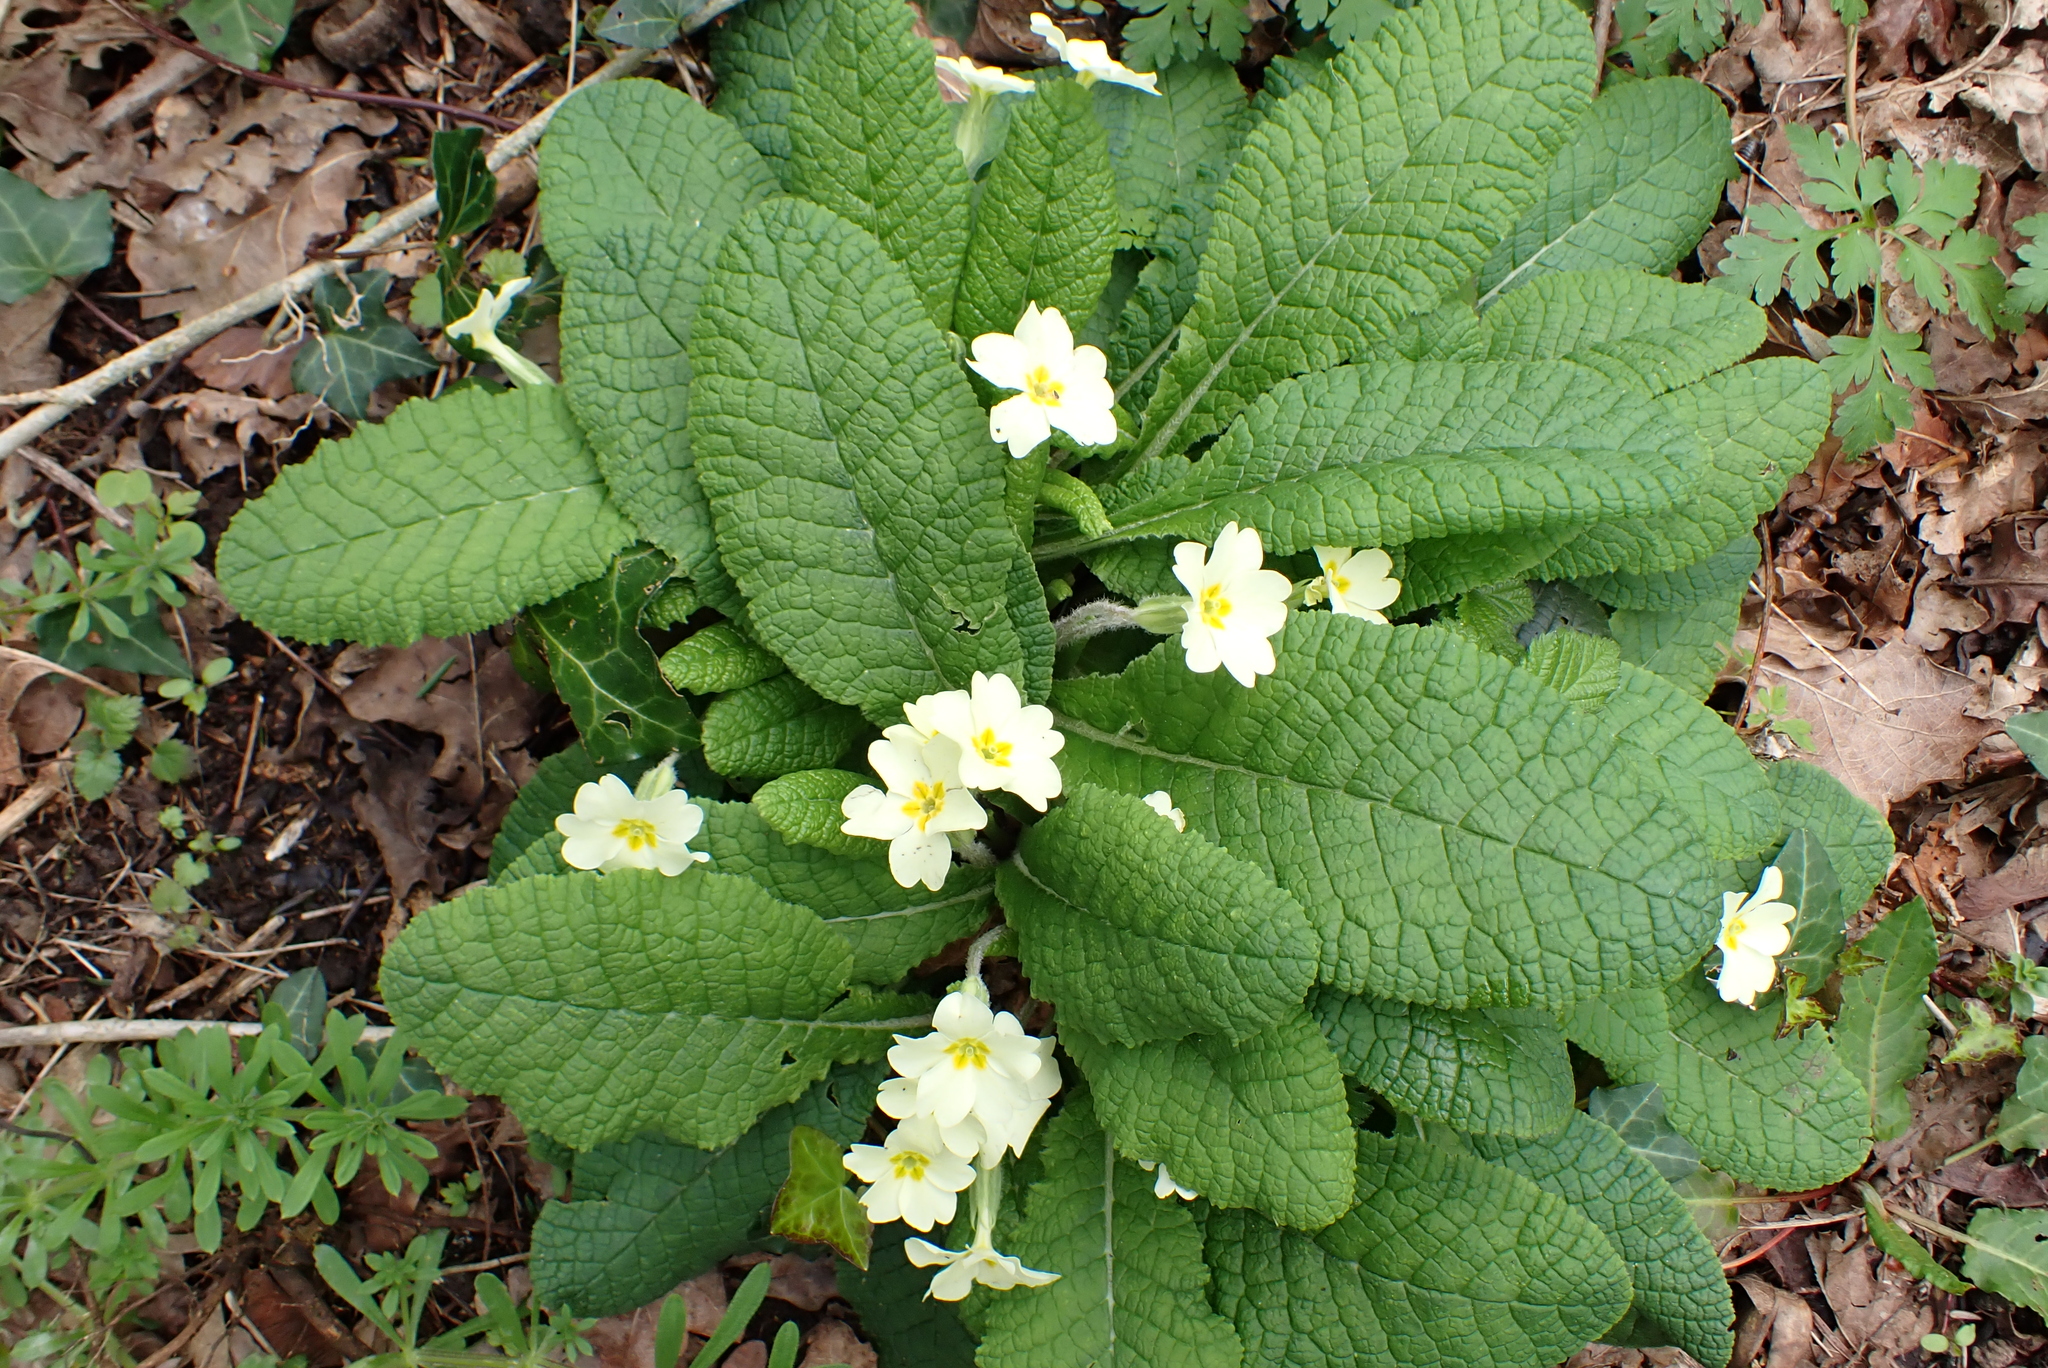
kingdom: Plantae
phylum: Tracheophyta
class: Magnoliopsida
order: Ericales
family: Primulaceae
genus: Primula
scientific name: Primula vulgaris
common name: Primrose
